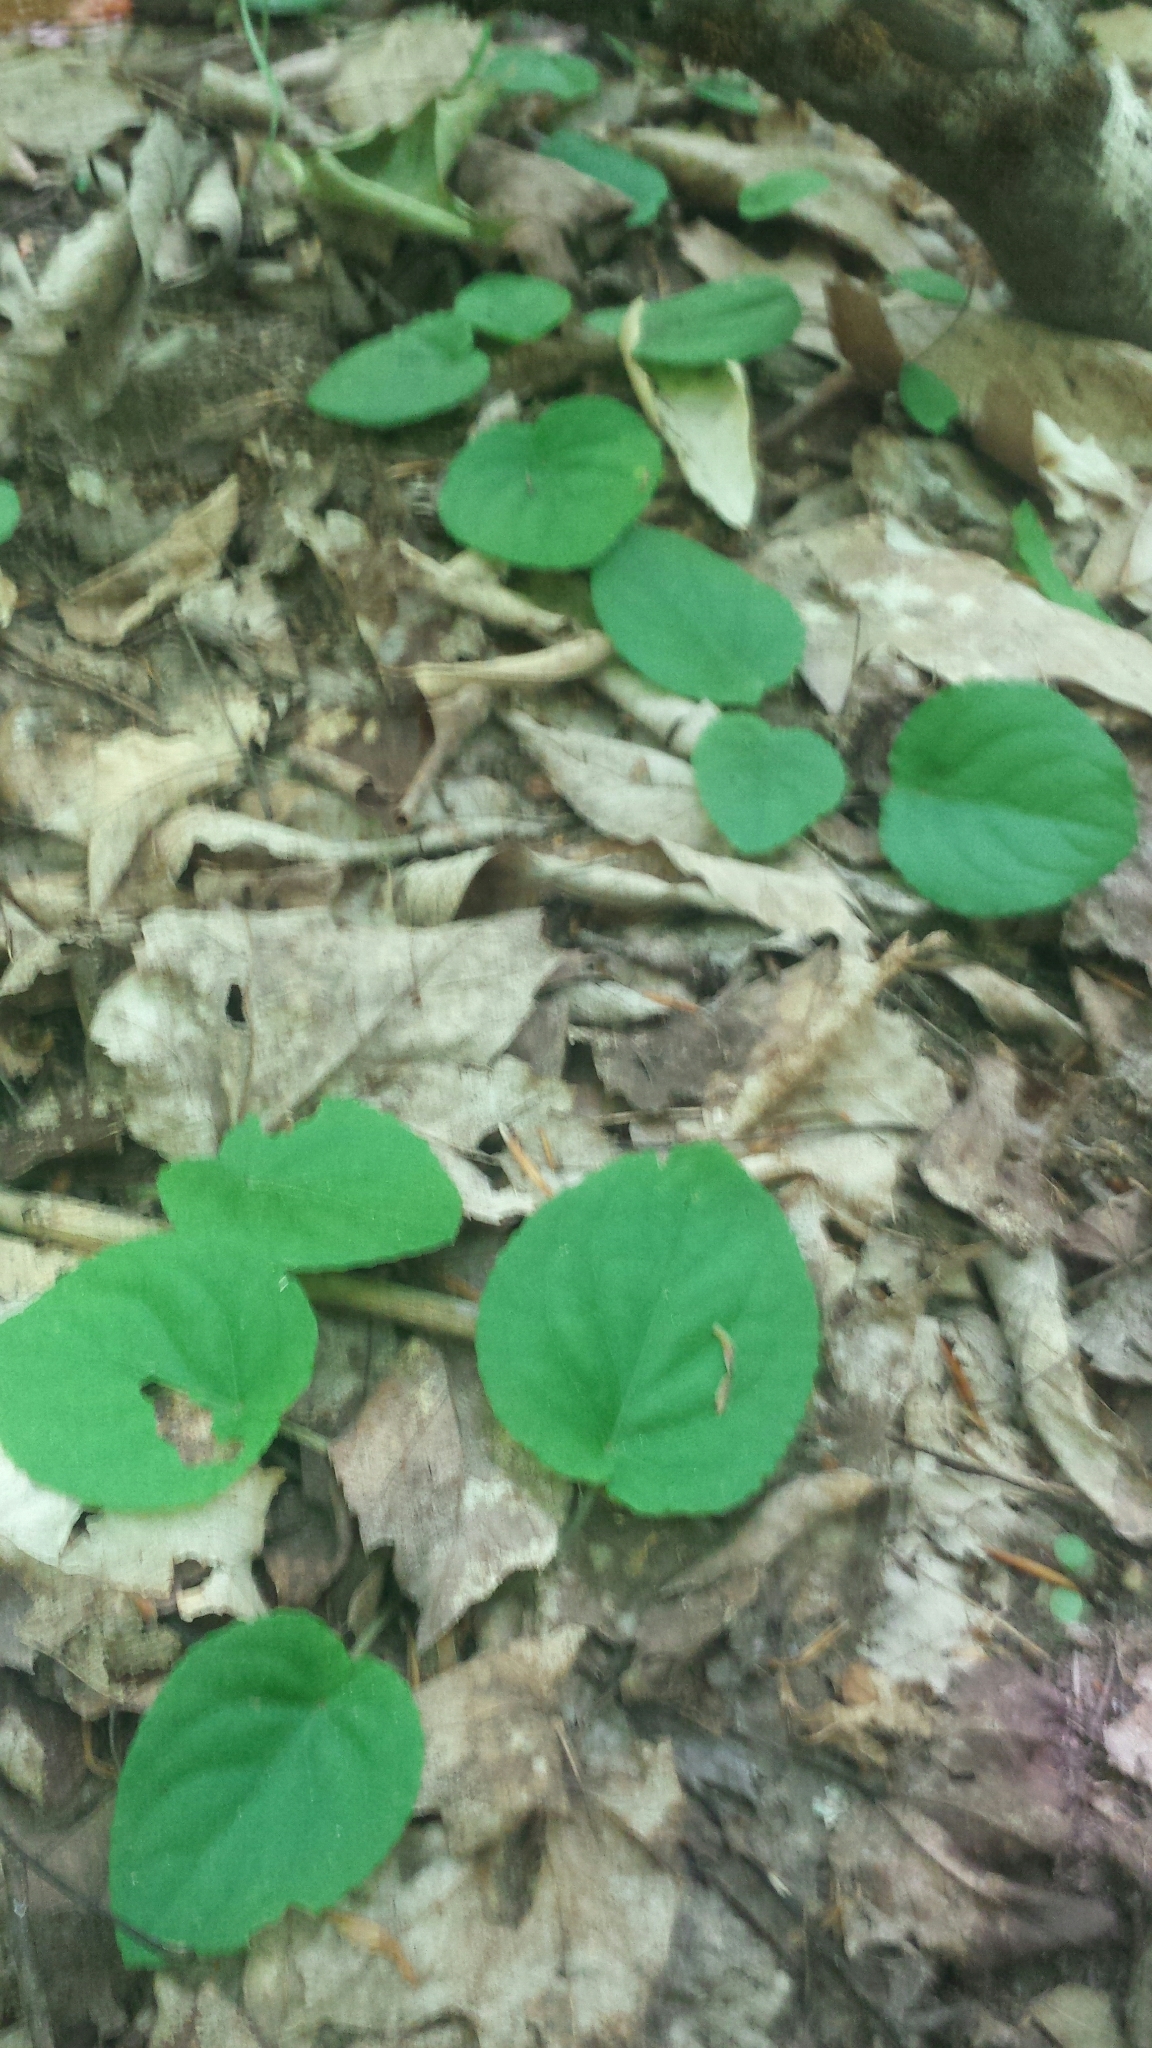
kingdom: Plantae
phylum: Tracheophyta
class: Magnoliopsida
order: Malpighiales
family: Violaceae
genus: Viola
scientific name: Viola rotundifolia
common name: Early yellow violet
